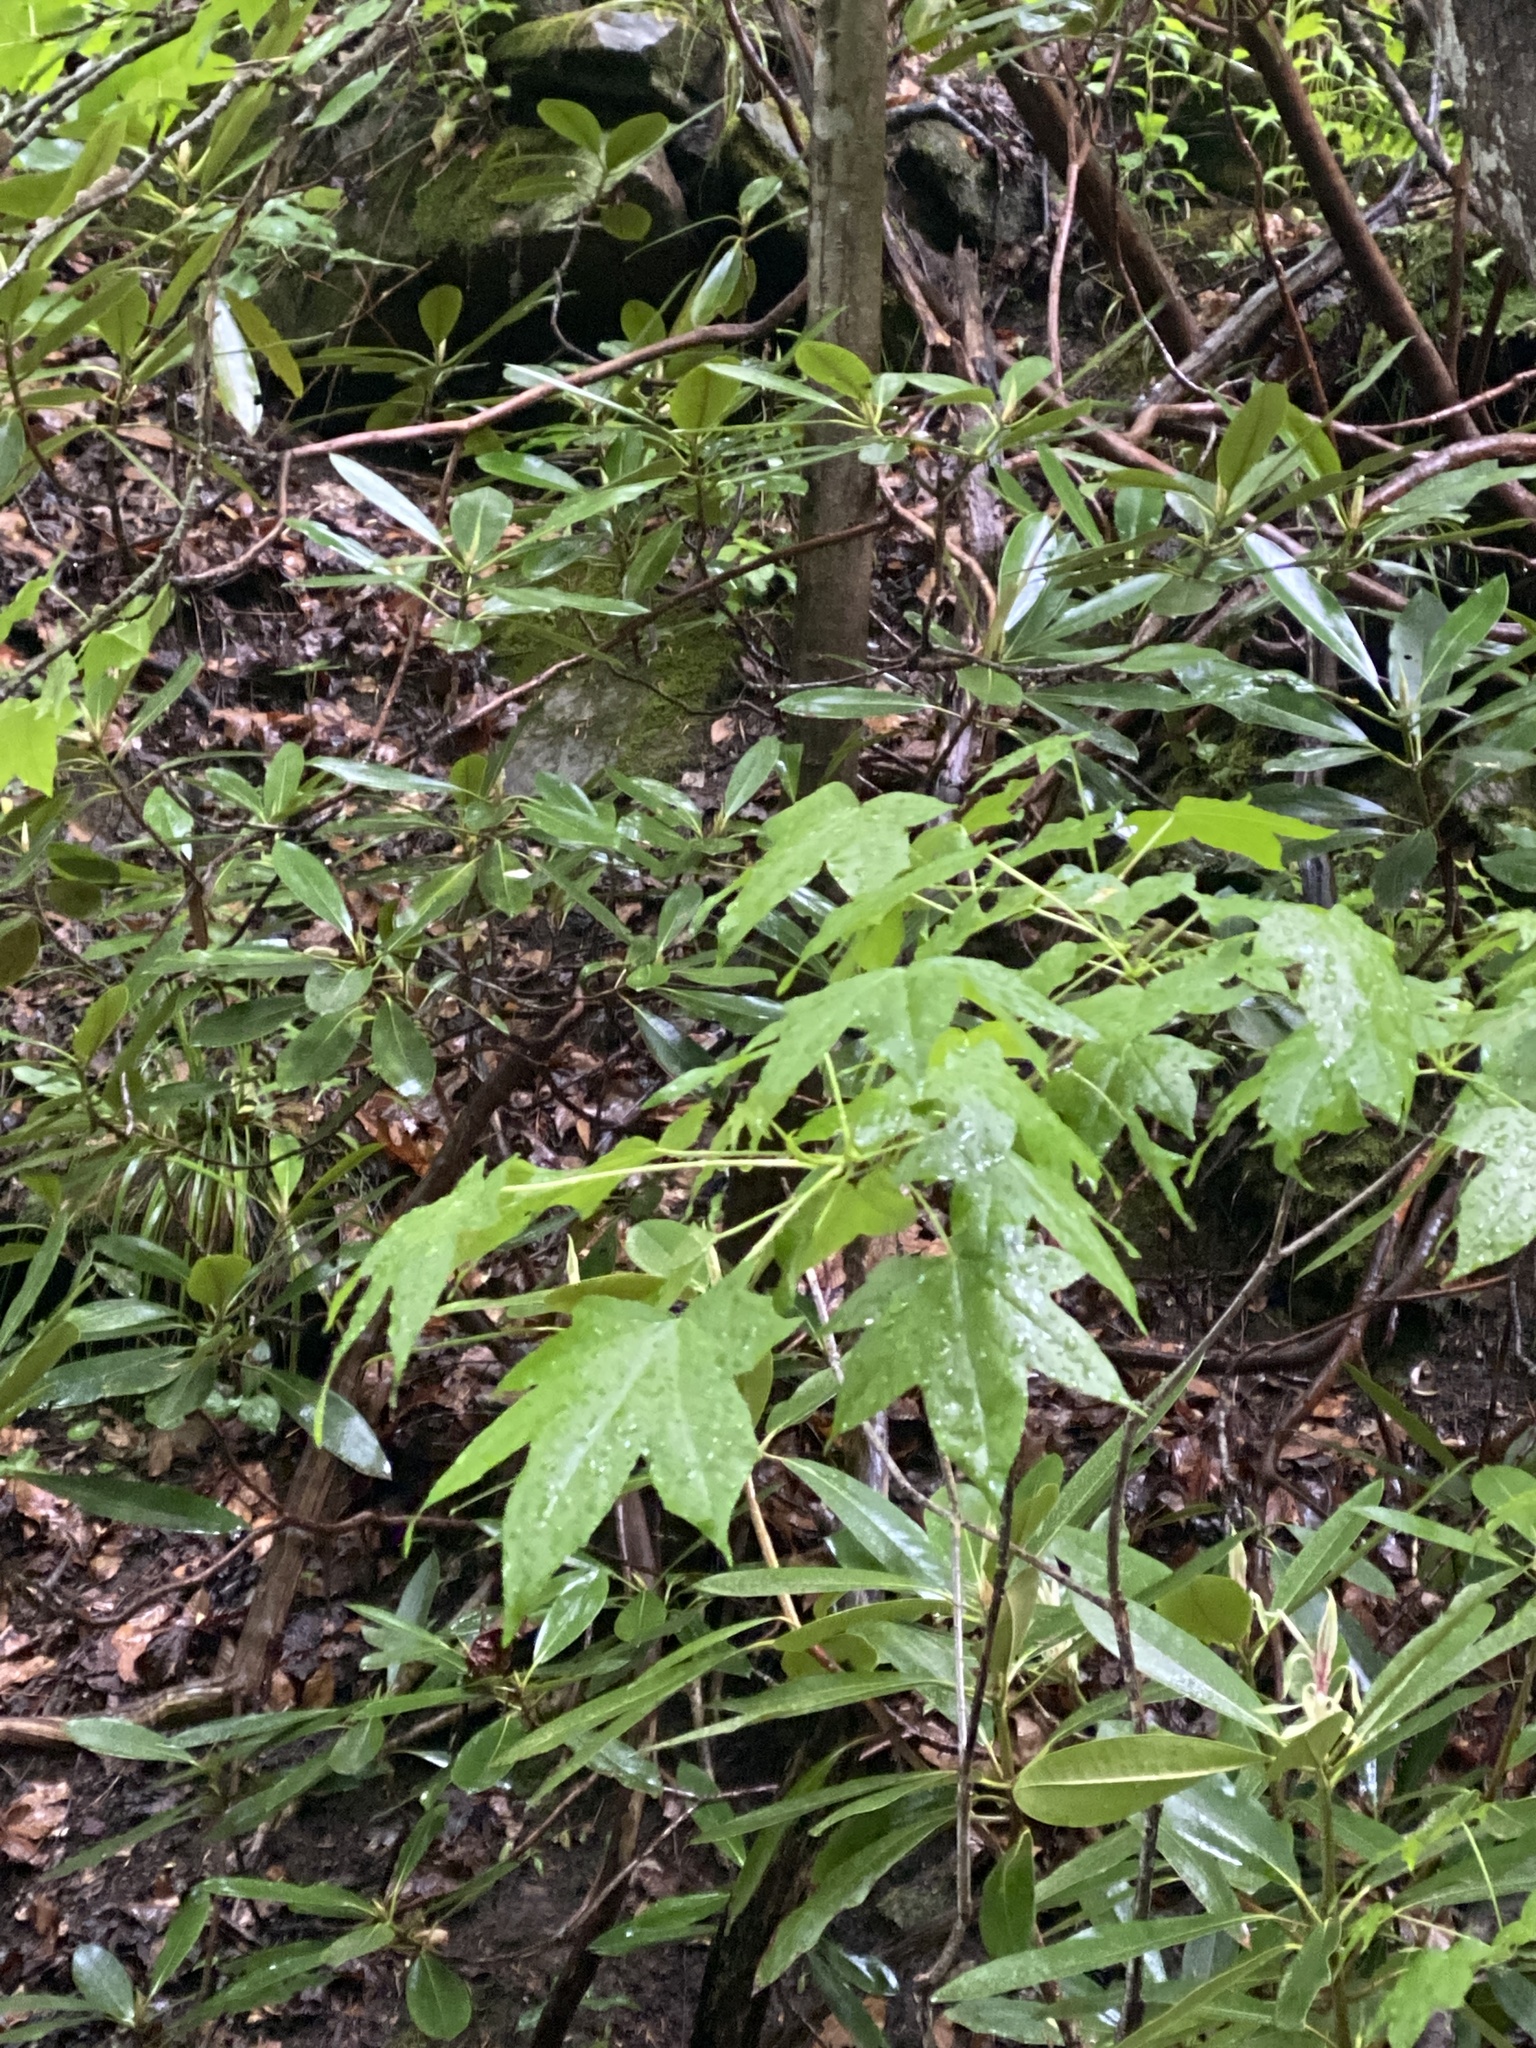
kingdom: Plantae
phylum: Tracheophyta
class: Magnoliopsida
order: Saxifragales
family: Altingiaceae
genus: Liquidambar
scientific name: Liquidambar styraciflua
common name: Sweet gum
